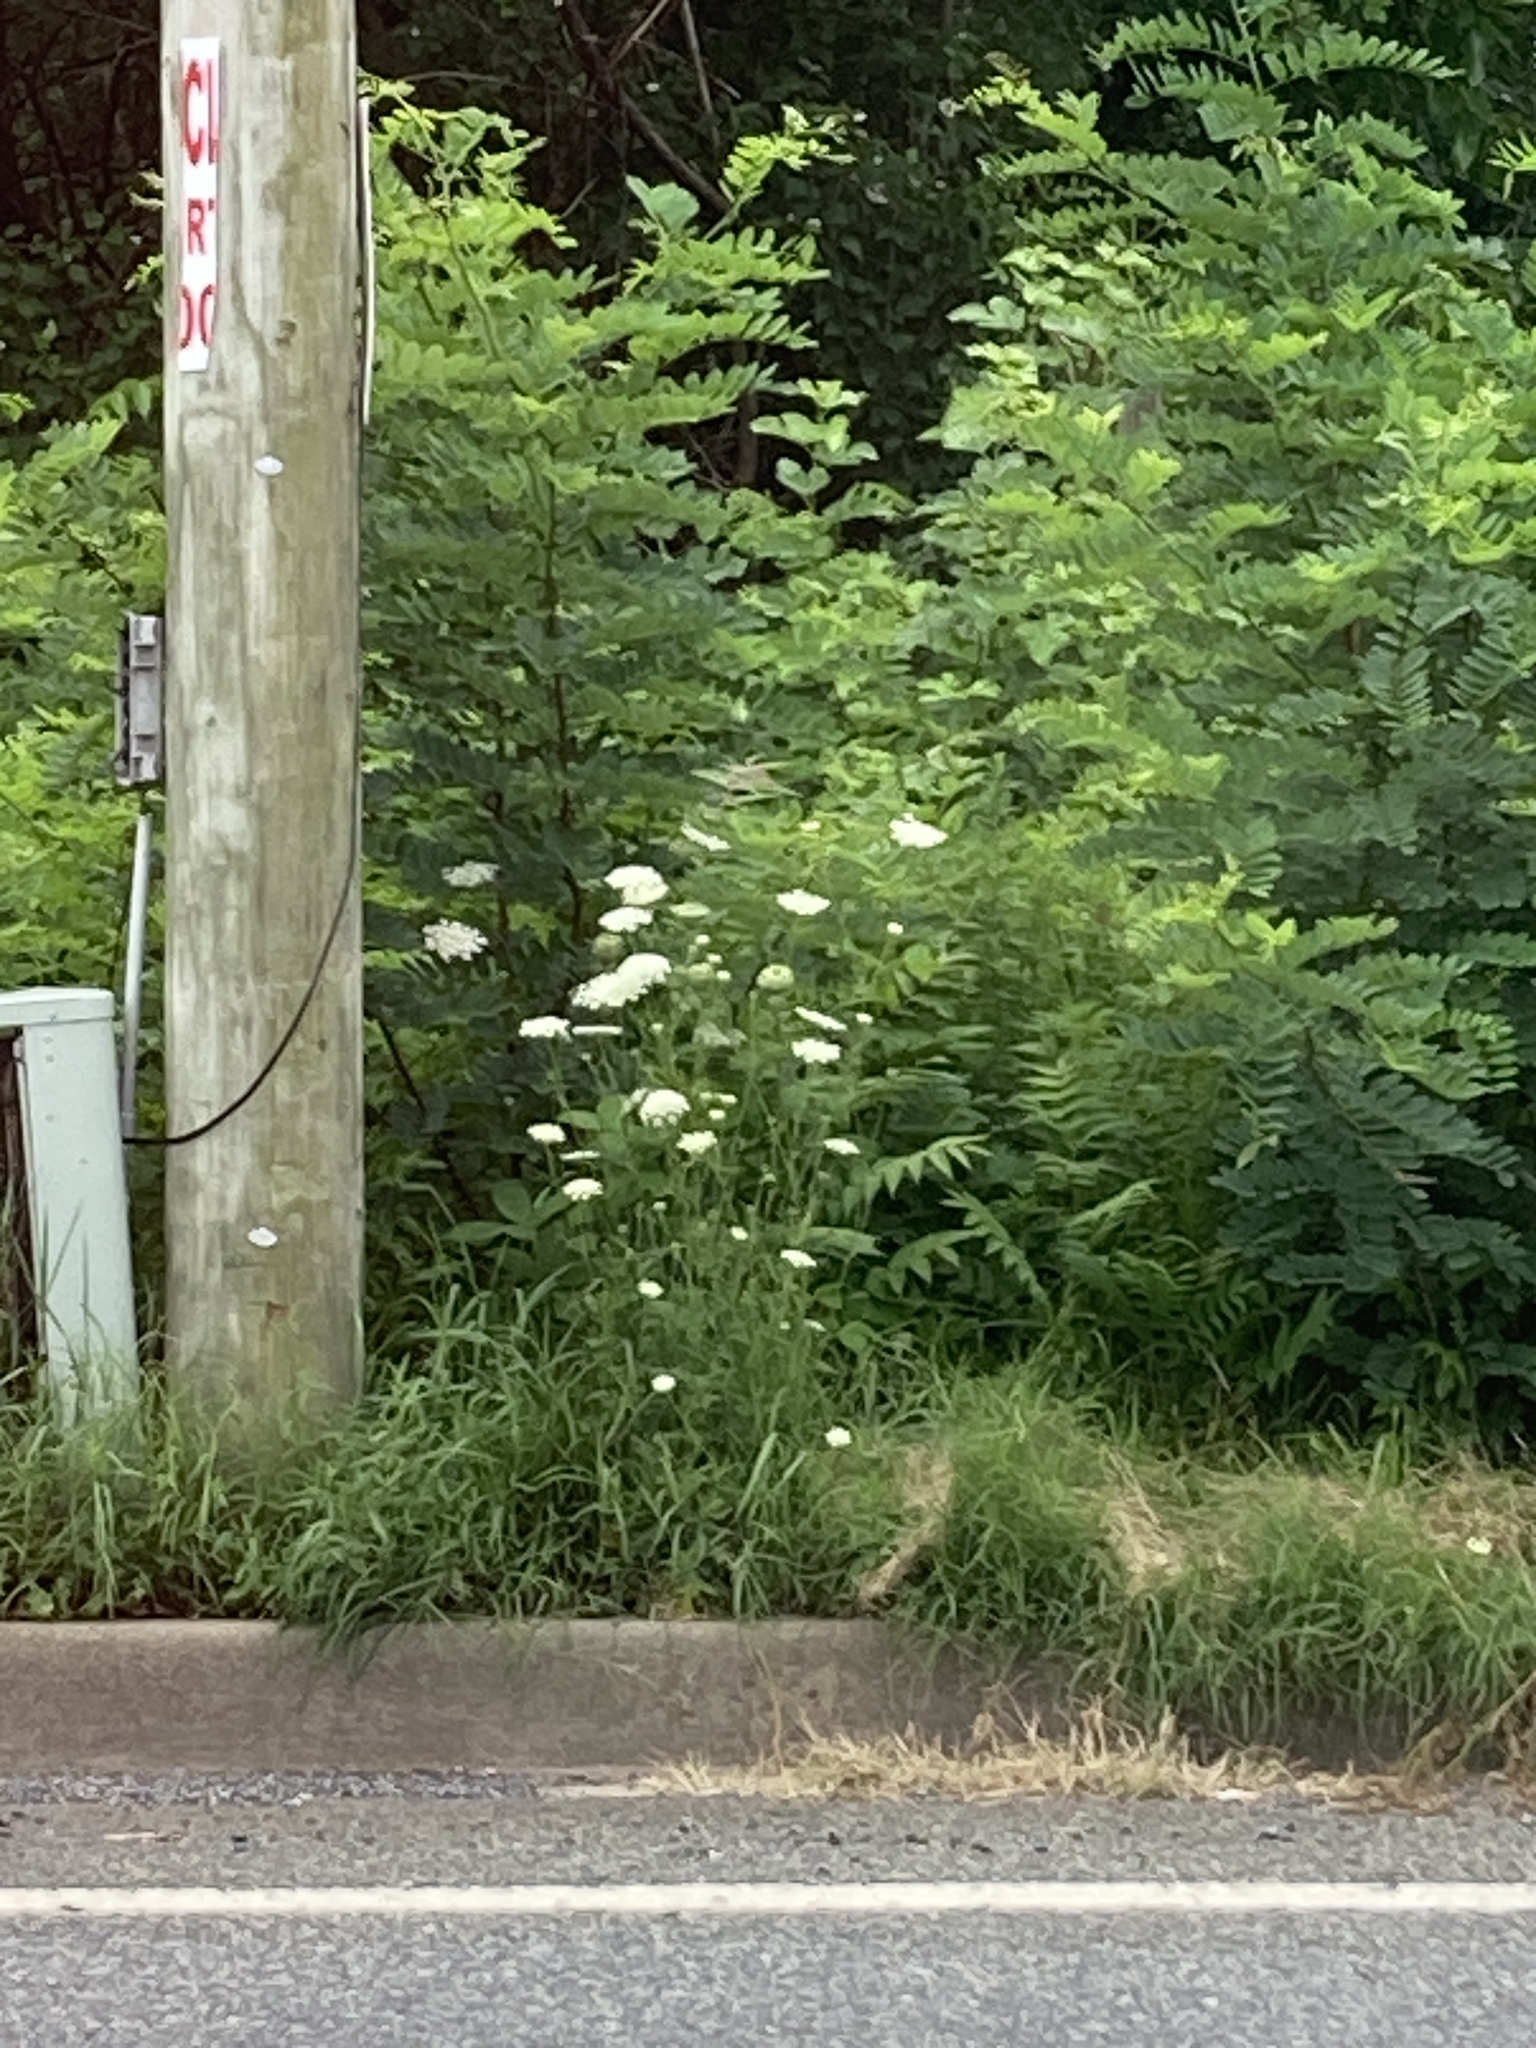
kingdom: Plantae
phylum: Tracheophyta
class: Magnoliopsida
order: Apiales
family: Apiaceae
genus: Daucus
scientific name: Daucus carota
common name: Wild carrot
